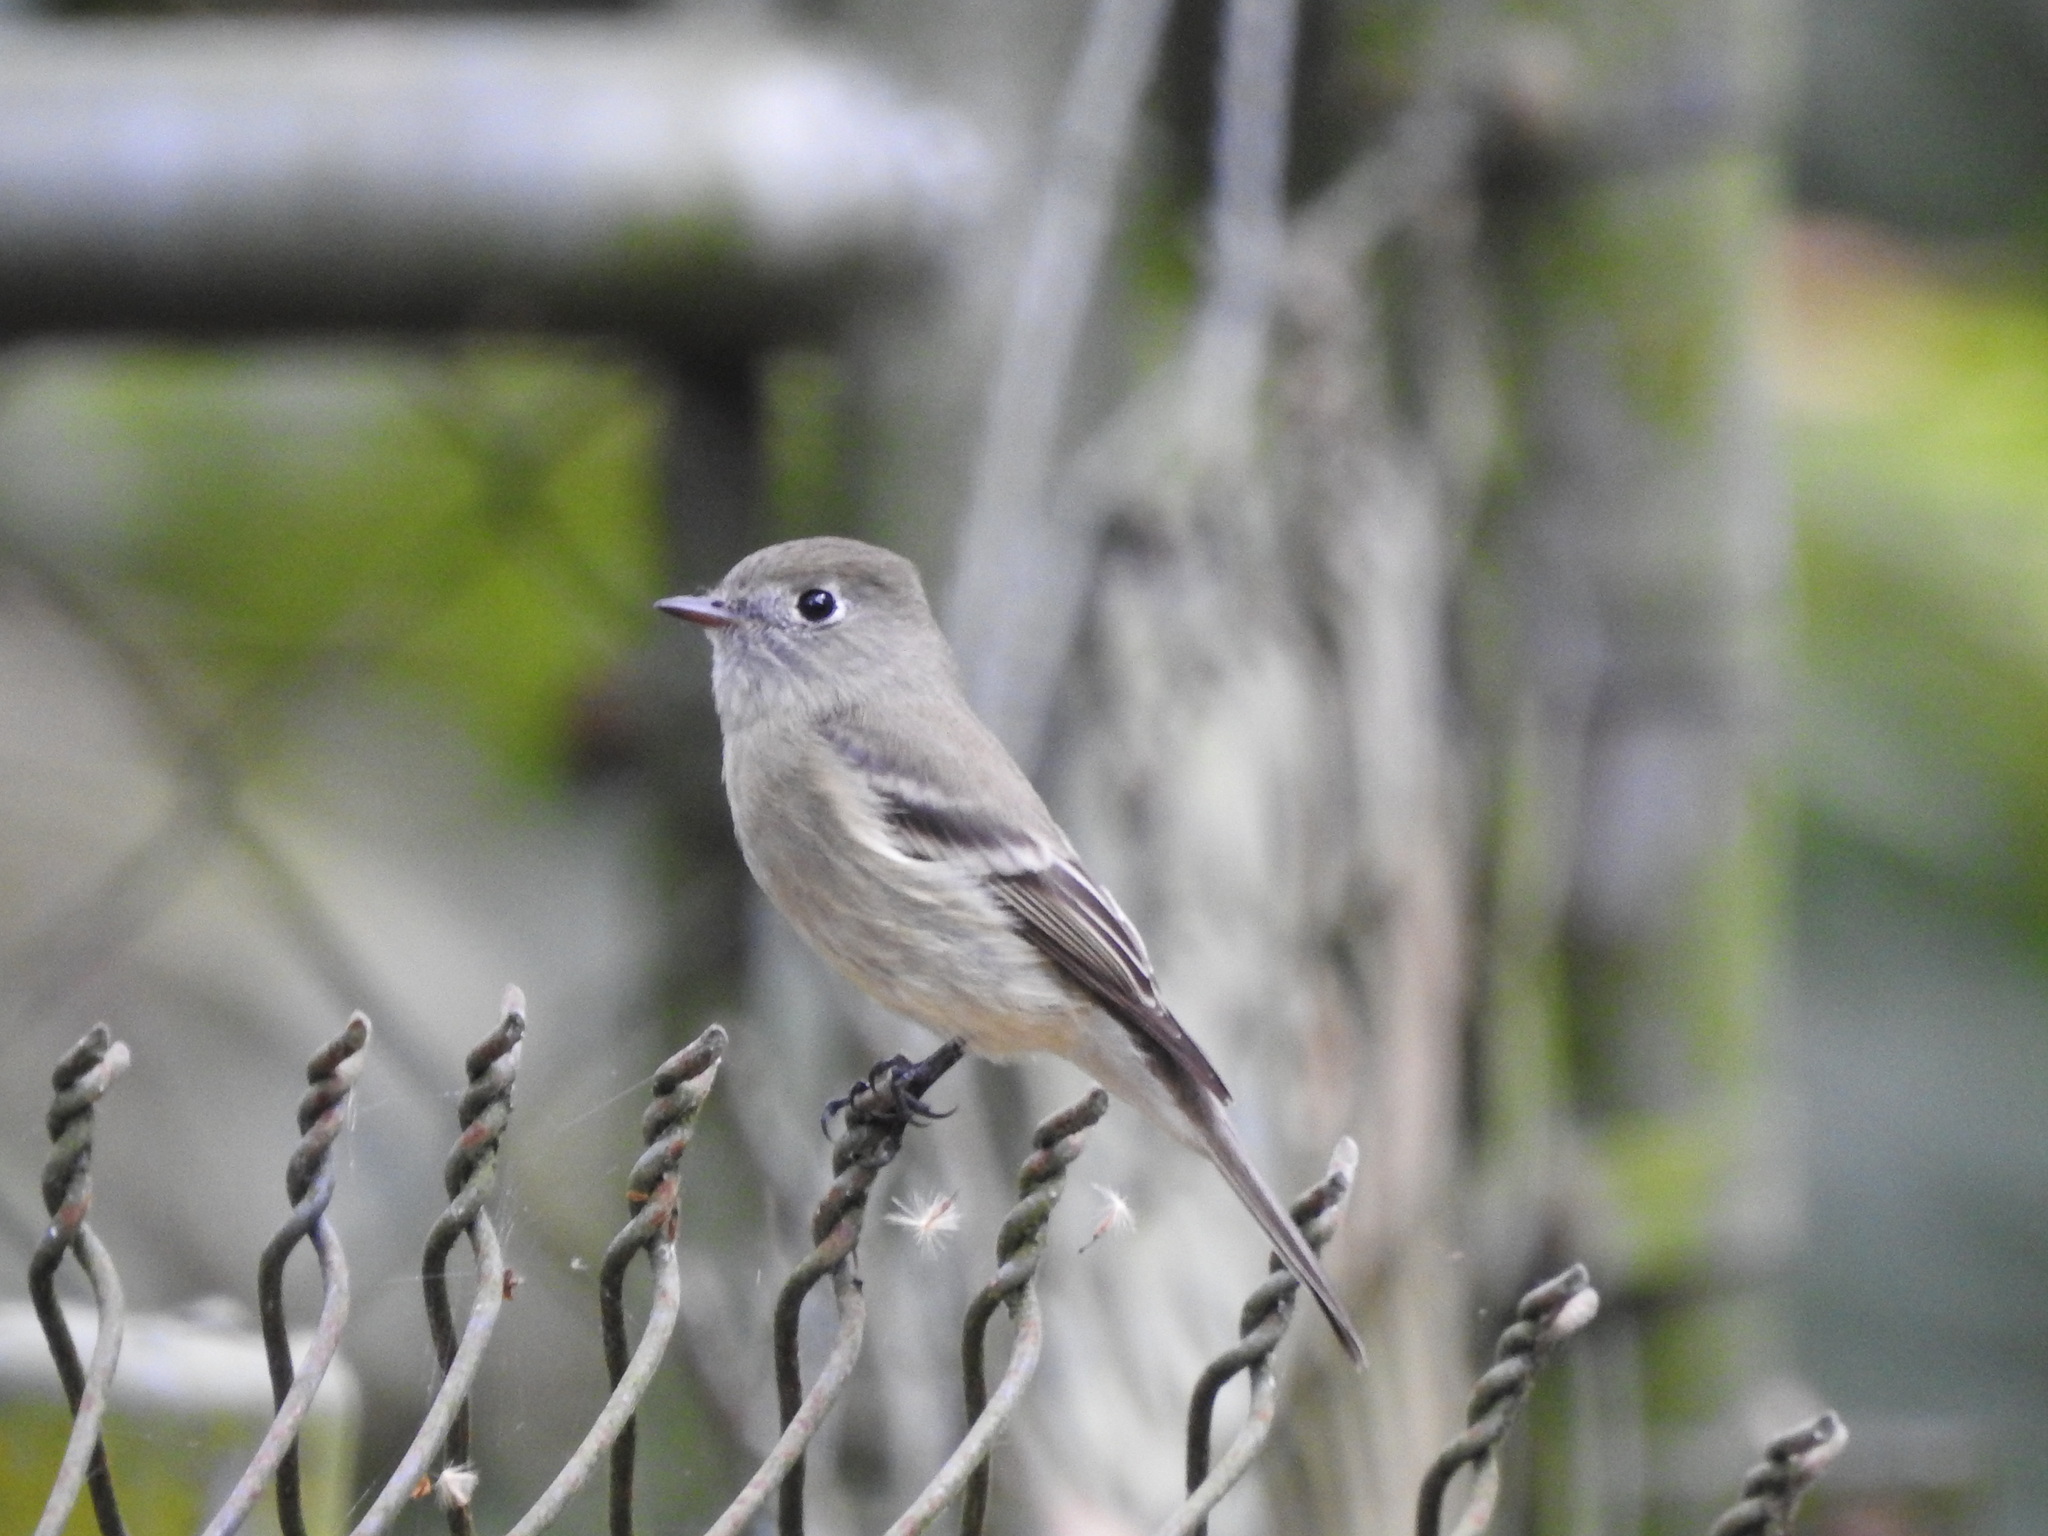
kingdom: Animalia
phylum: Chordata
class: Aves
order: Passeriformes
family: Tyrannidae
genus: Empidonax
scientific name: Empidonax hammondii
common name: Hammond's flycatcher
